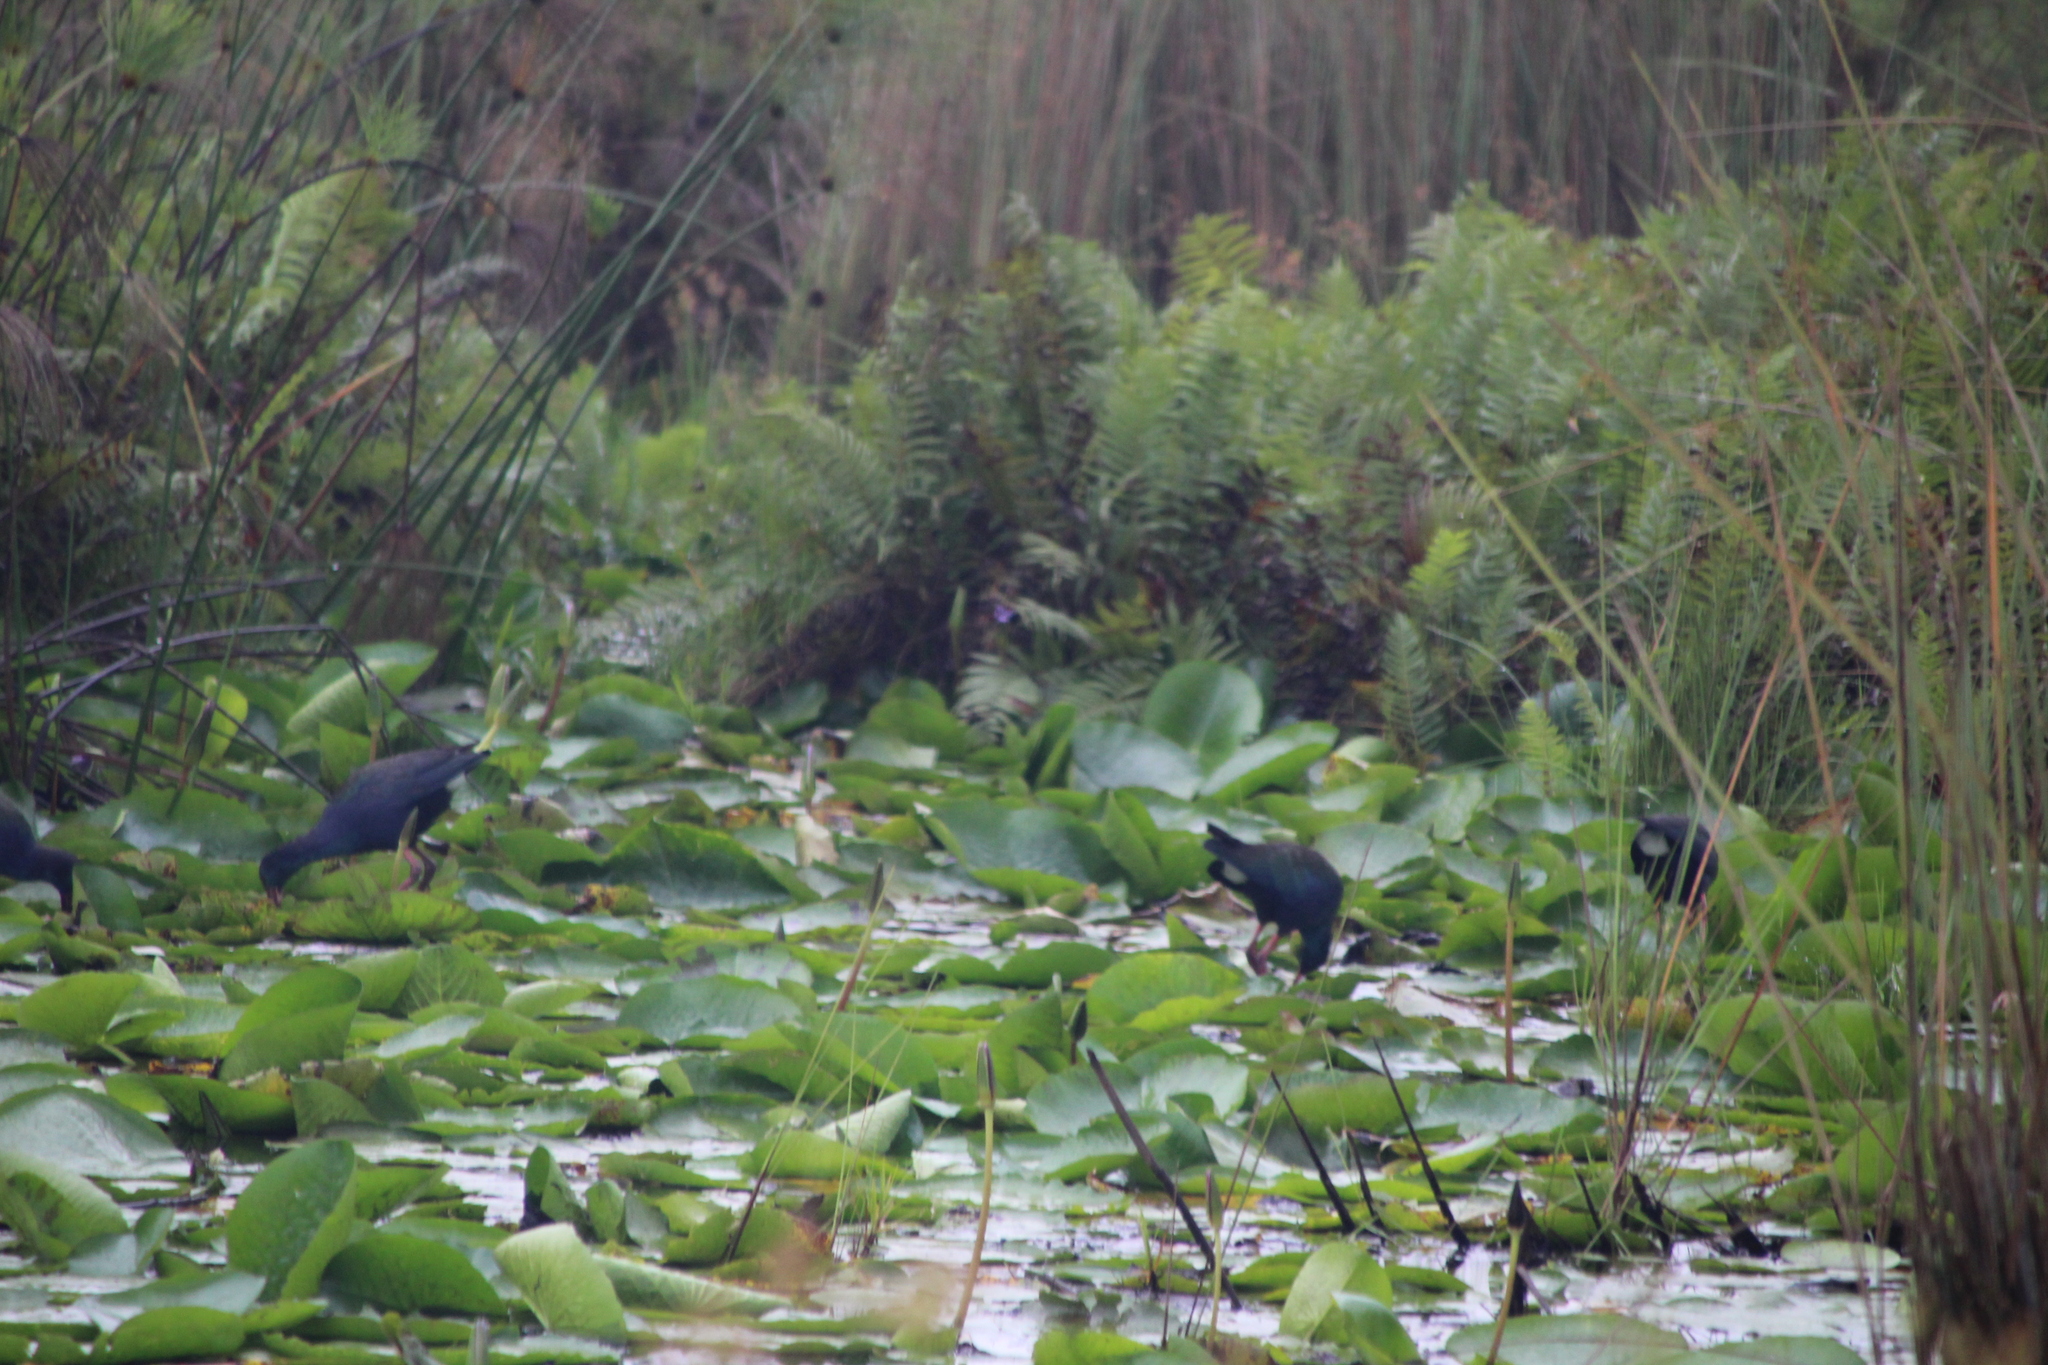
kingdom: Animalia
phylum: Chordata
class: Aves
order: Gruiformes
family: Rallidae
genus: Porphyrio
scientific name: Porphyrio alleni
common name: Allen's gallinule
